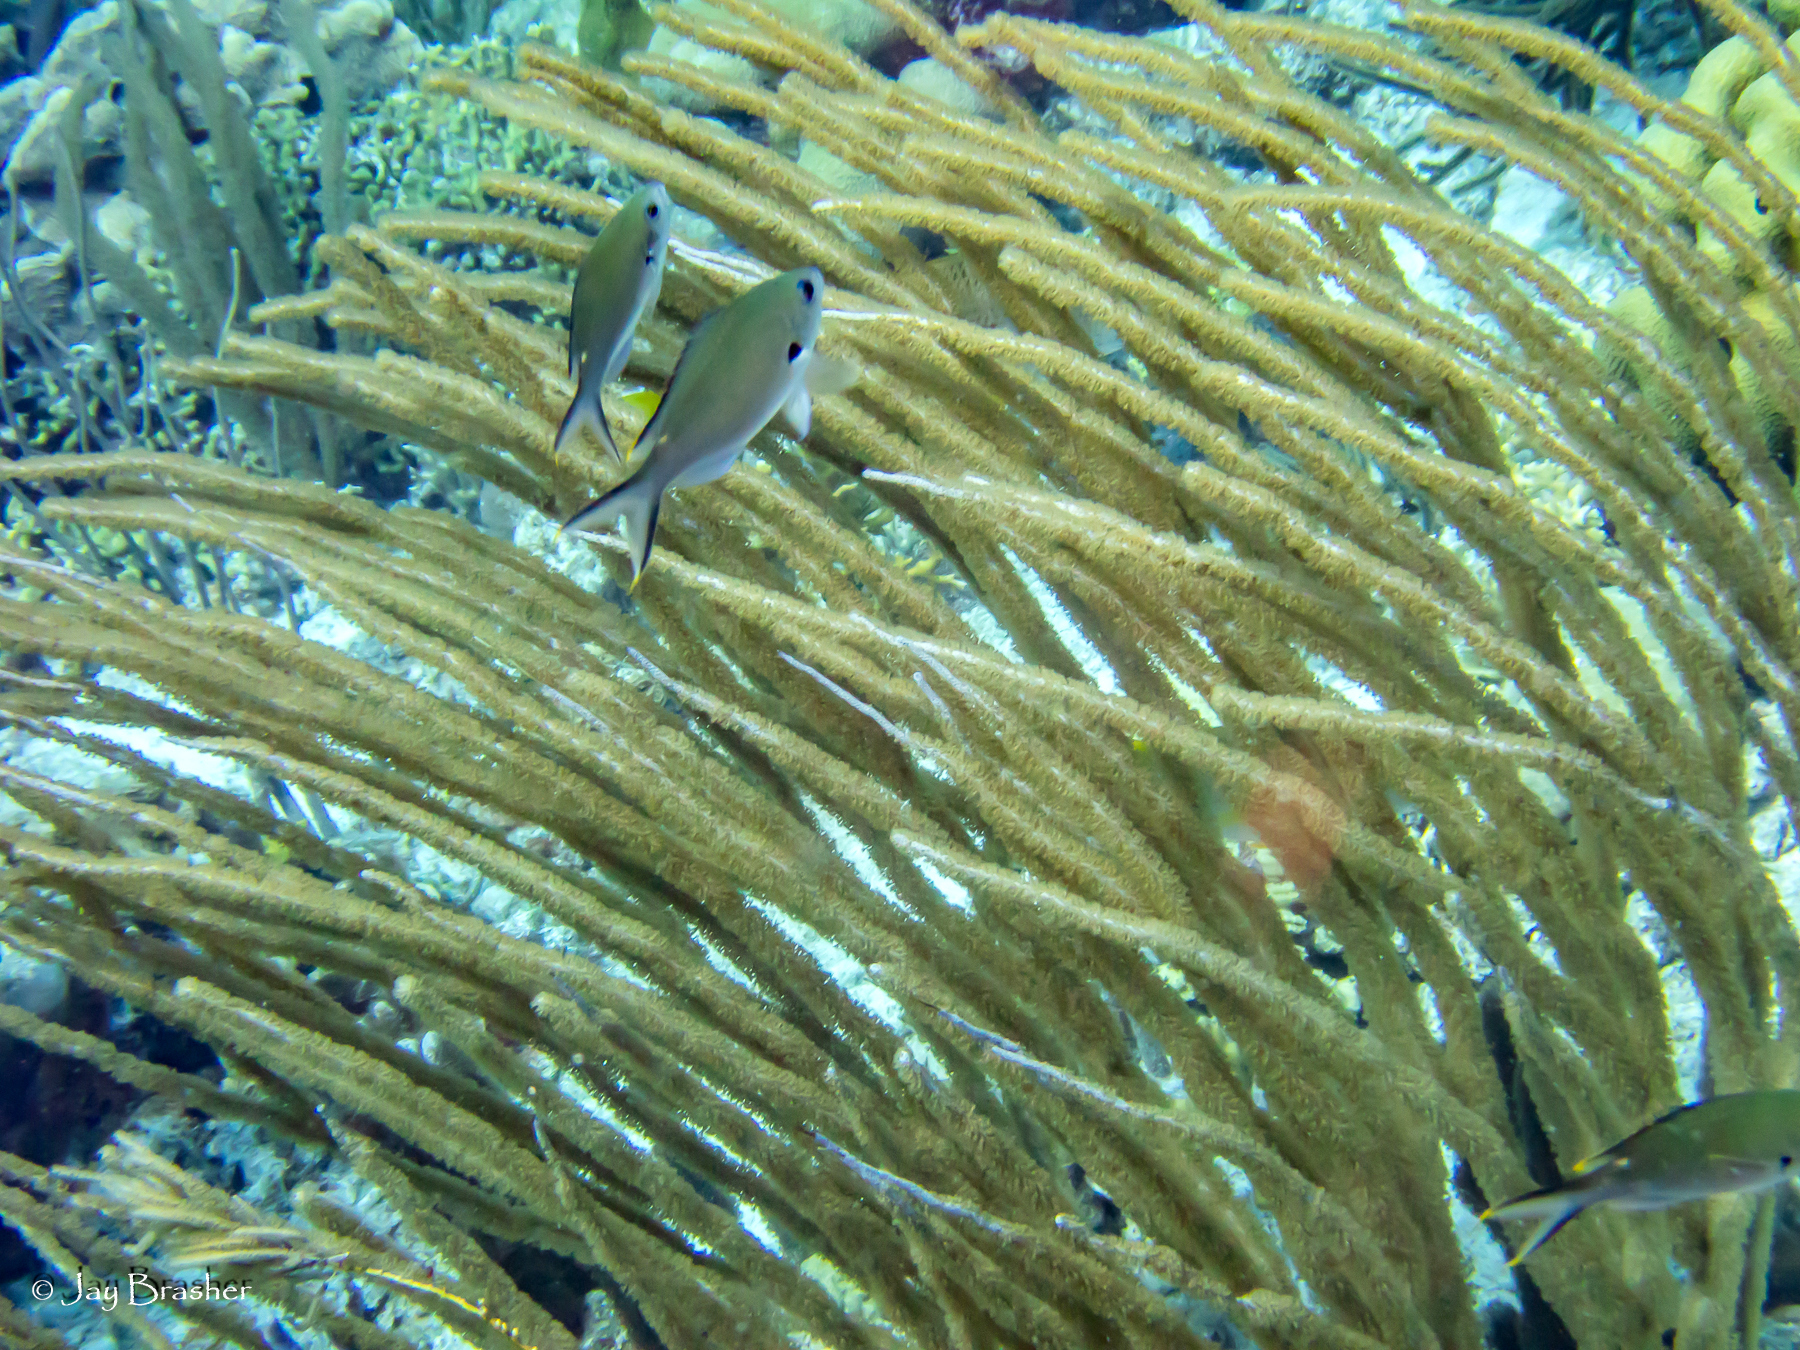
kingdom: Animalia
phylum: Chordata
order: Perciformes
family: Pomacentridae
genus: Chromis
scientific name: Chromis multilineata
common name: Brown chromis
